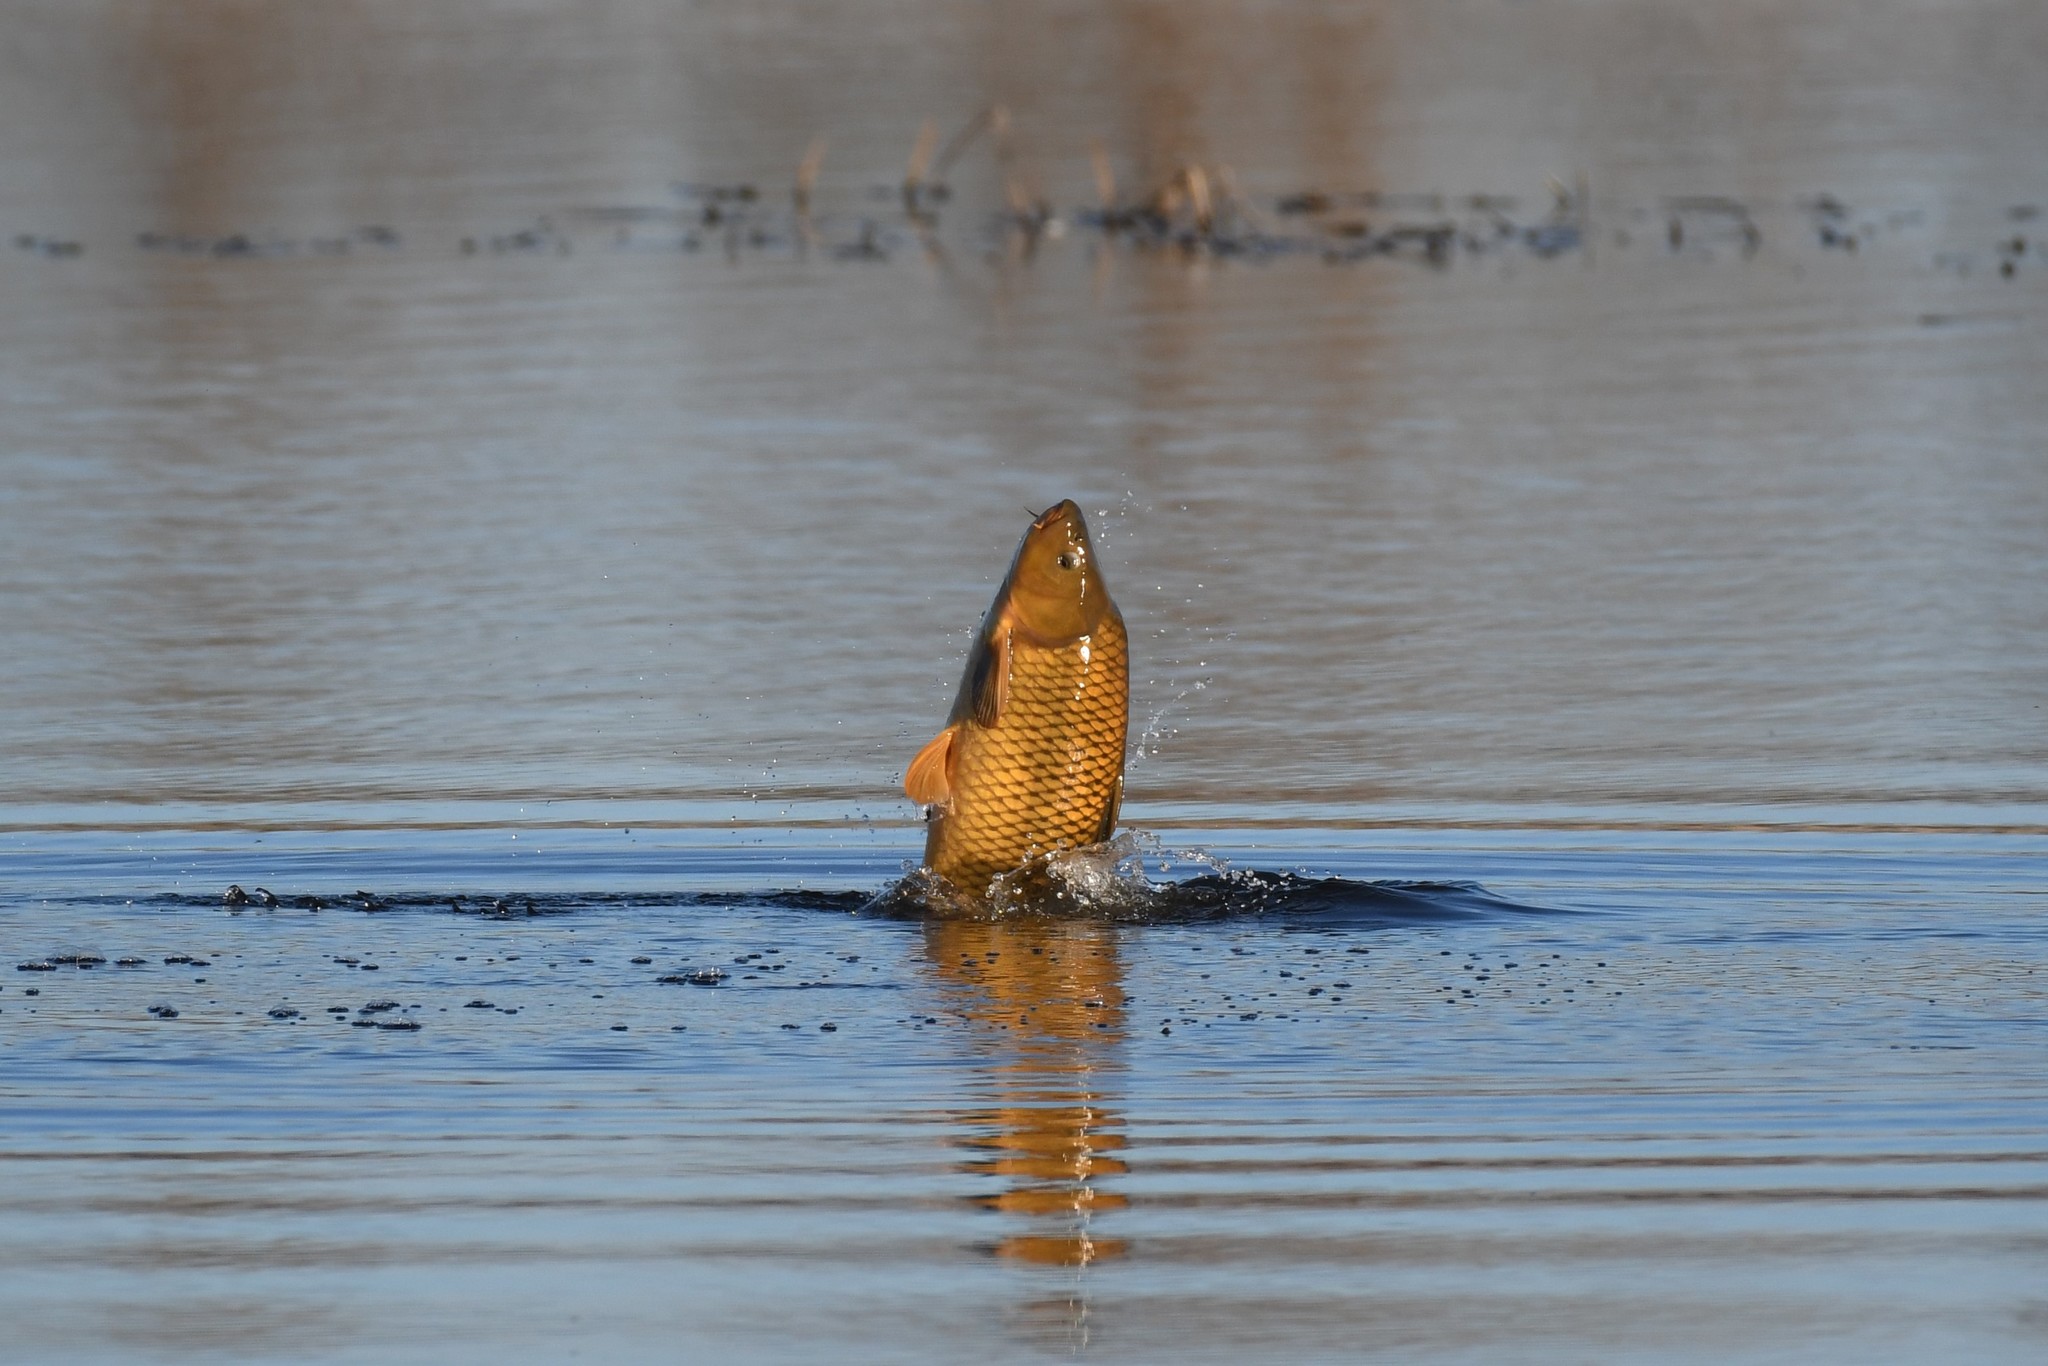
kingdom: Animalia
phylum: Chordata
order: Cypriniformes
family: Cyprinidae
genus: Cyprinus
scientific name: Cyprinus carpio
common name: Common carp
